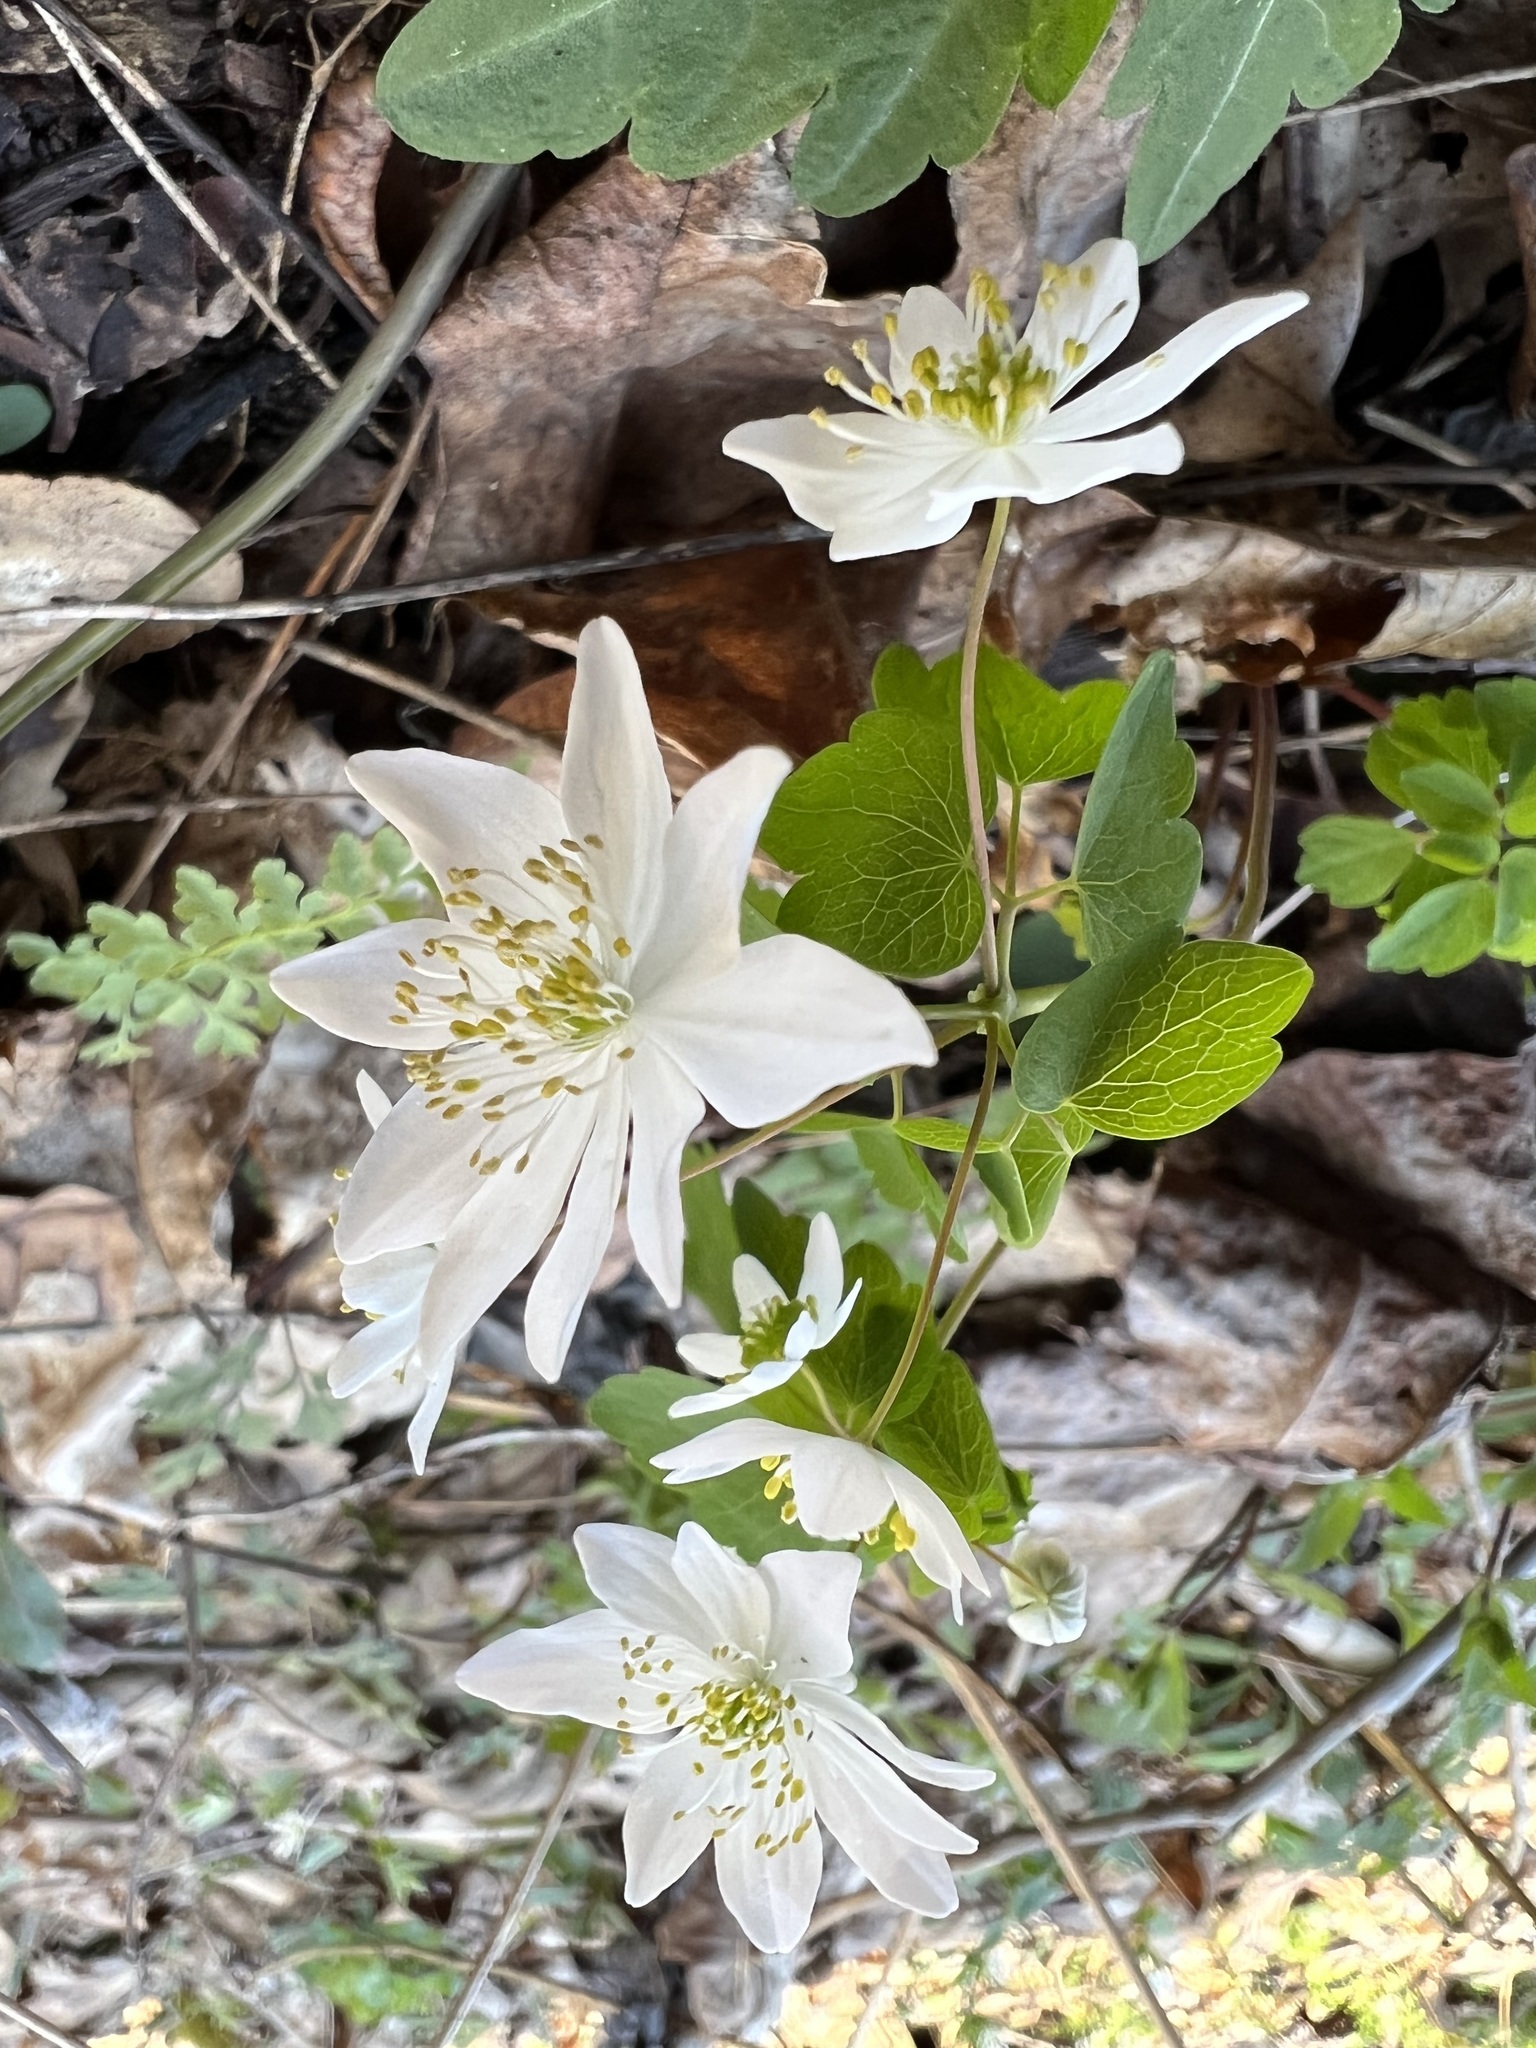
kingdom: Plantae
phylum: Tracheophyta
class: Magnoliopsida
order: Ranunculales
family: Ranunculaceae
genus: Thalictrum
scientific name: Thalictrum thalictroides
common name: Rue-anemone
